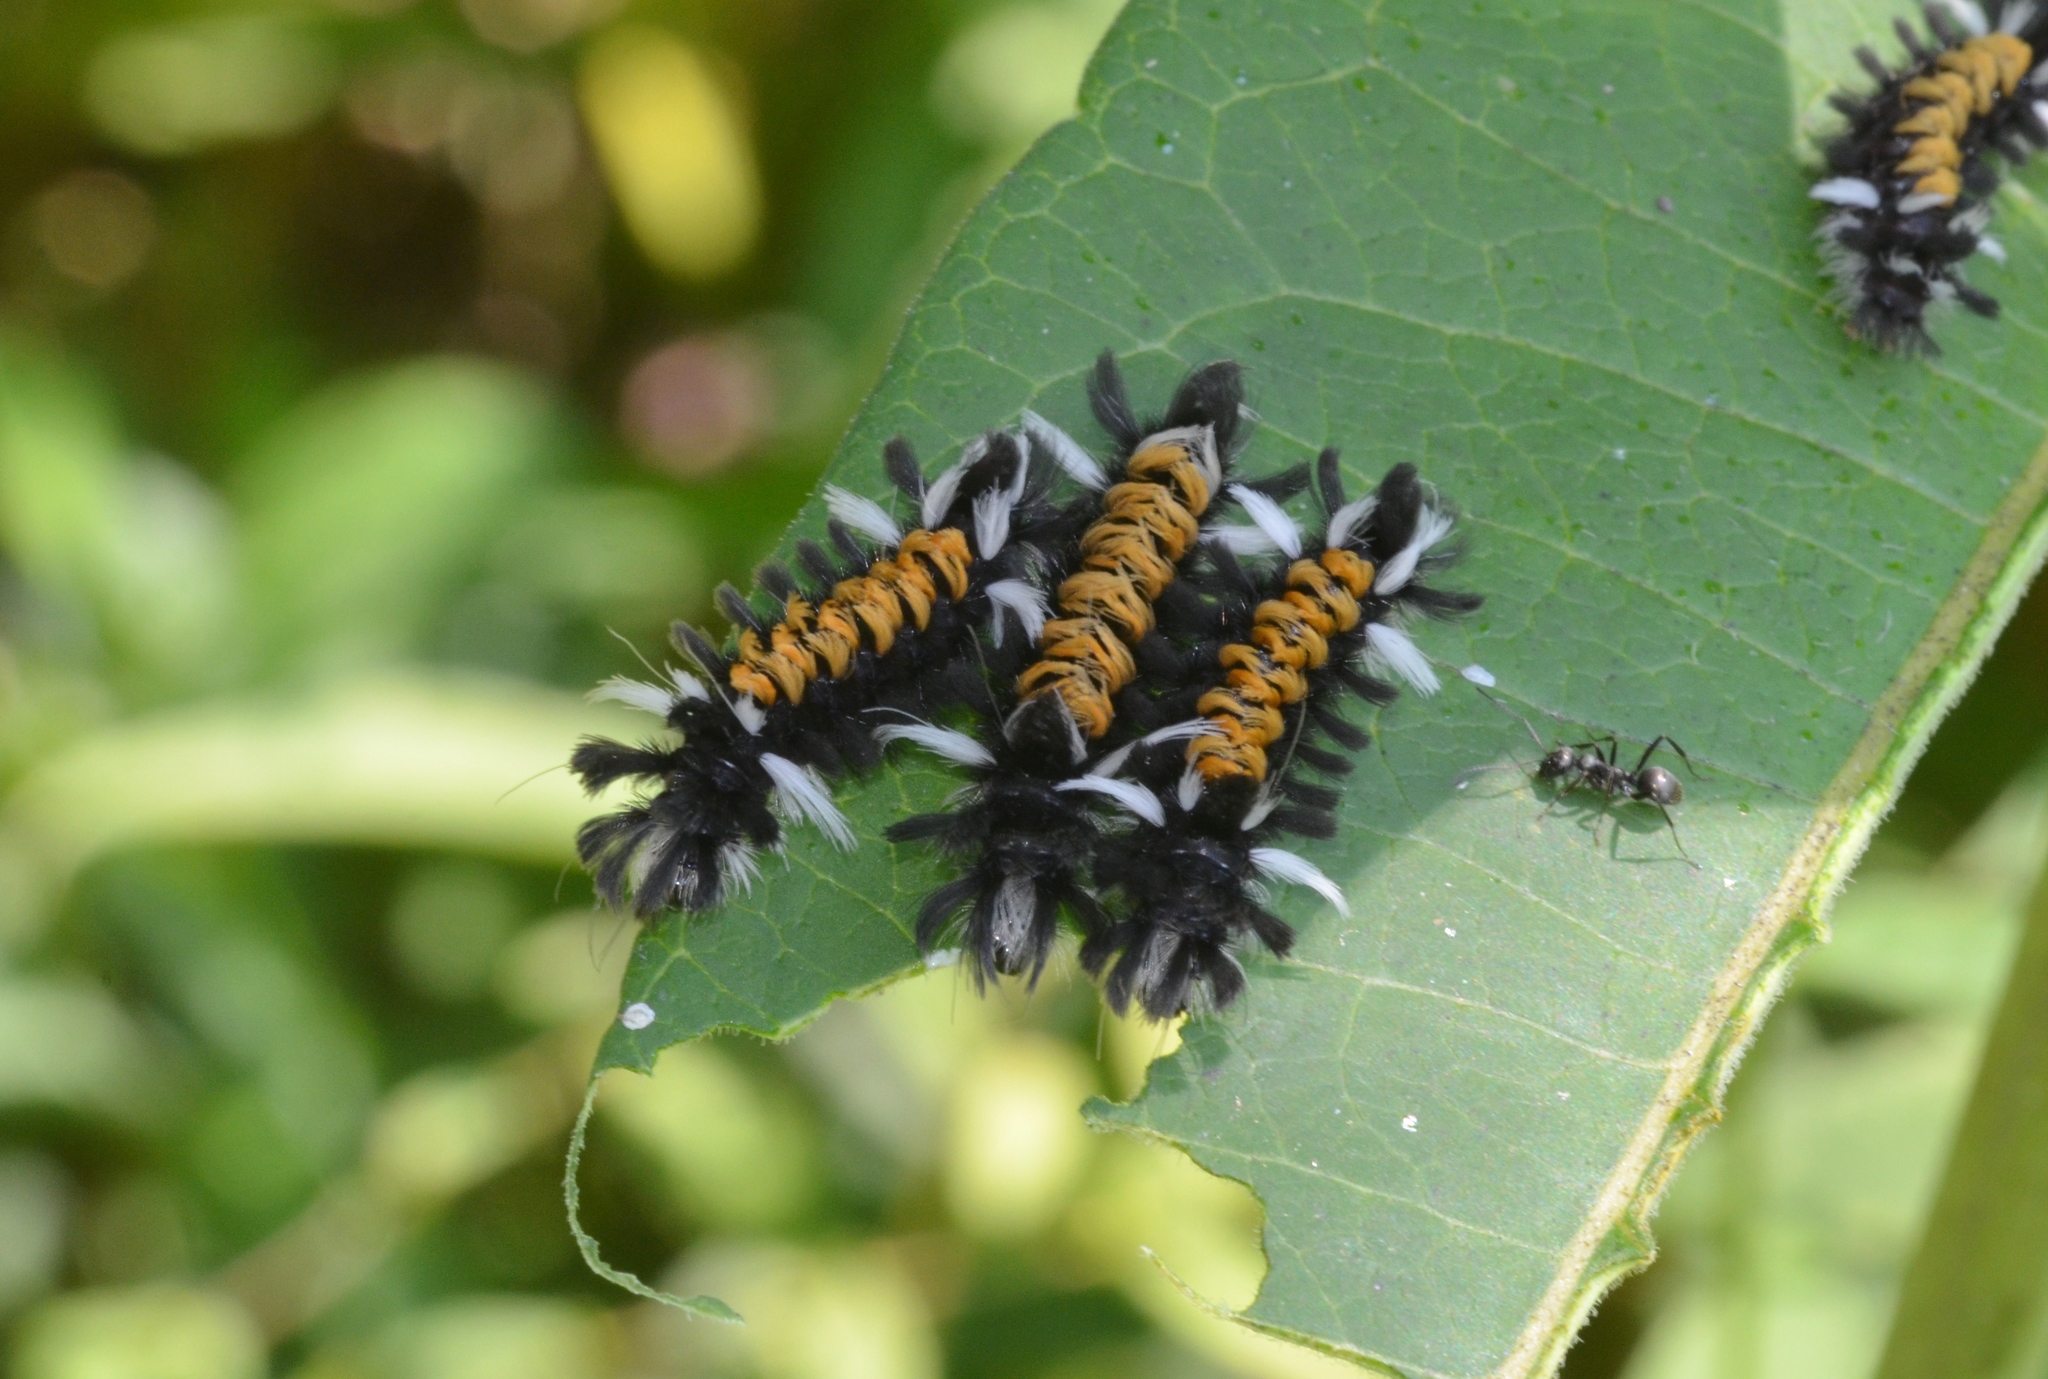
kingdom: Animalia
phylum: Arthropoda
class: Insecta
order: Lepidoptera
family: Erebidae
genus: Euchaetes
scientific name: Euchaetes egle
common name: Milkweed tussock moth
